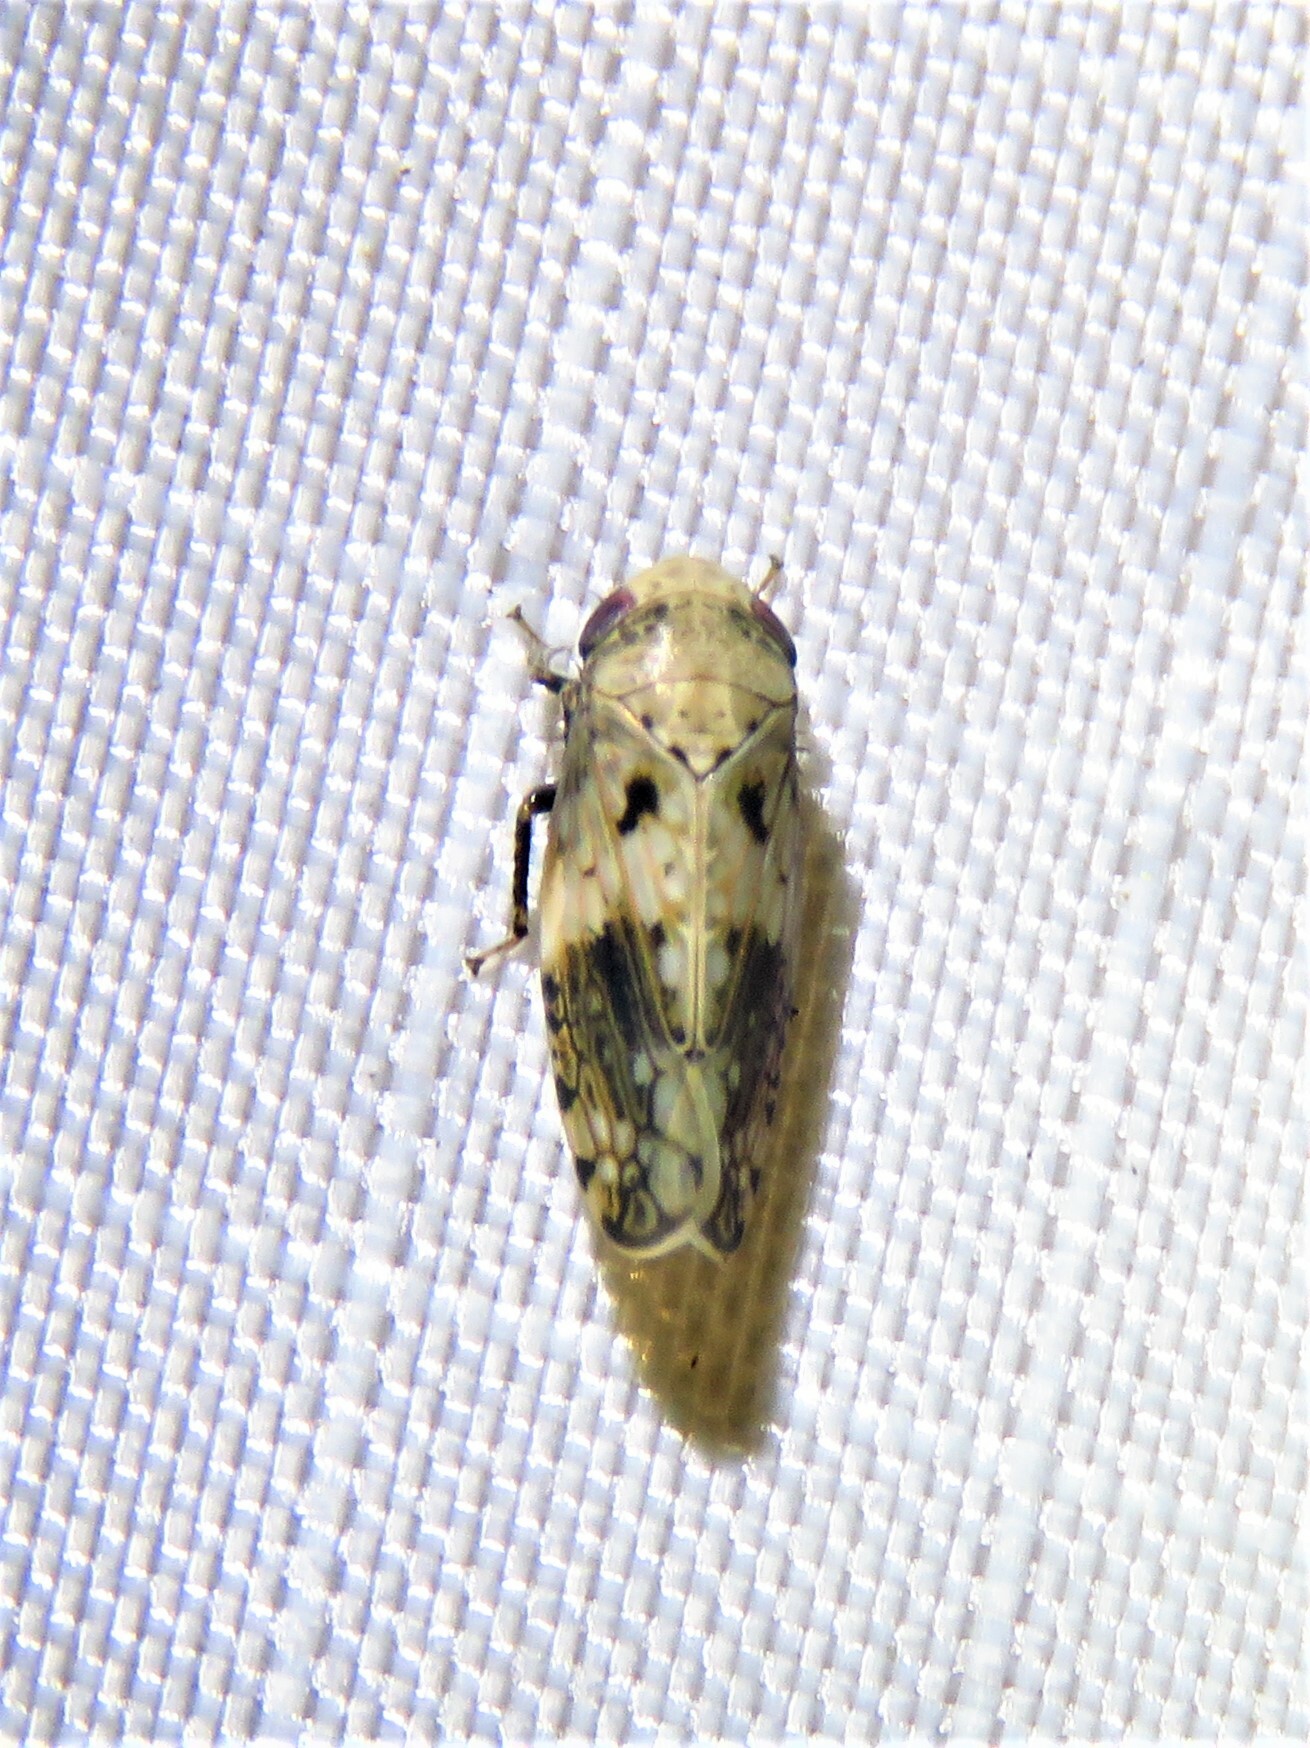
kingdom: Animalia
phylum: Arthropoda
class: Insecta
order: Hemiptera
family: Cicadellidae
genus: Menosoma
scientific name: Menosoma cinctum
